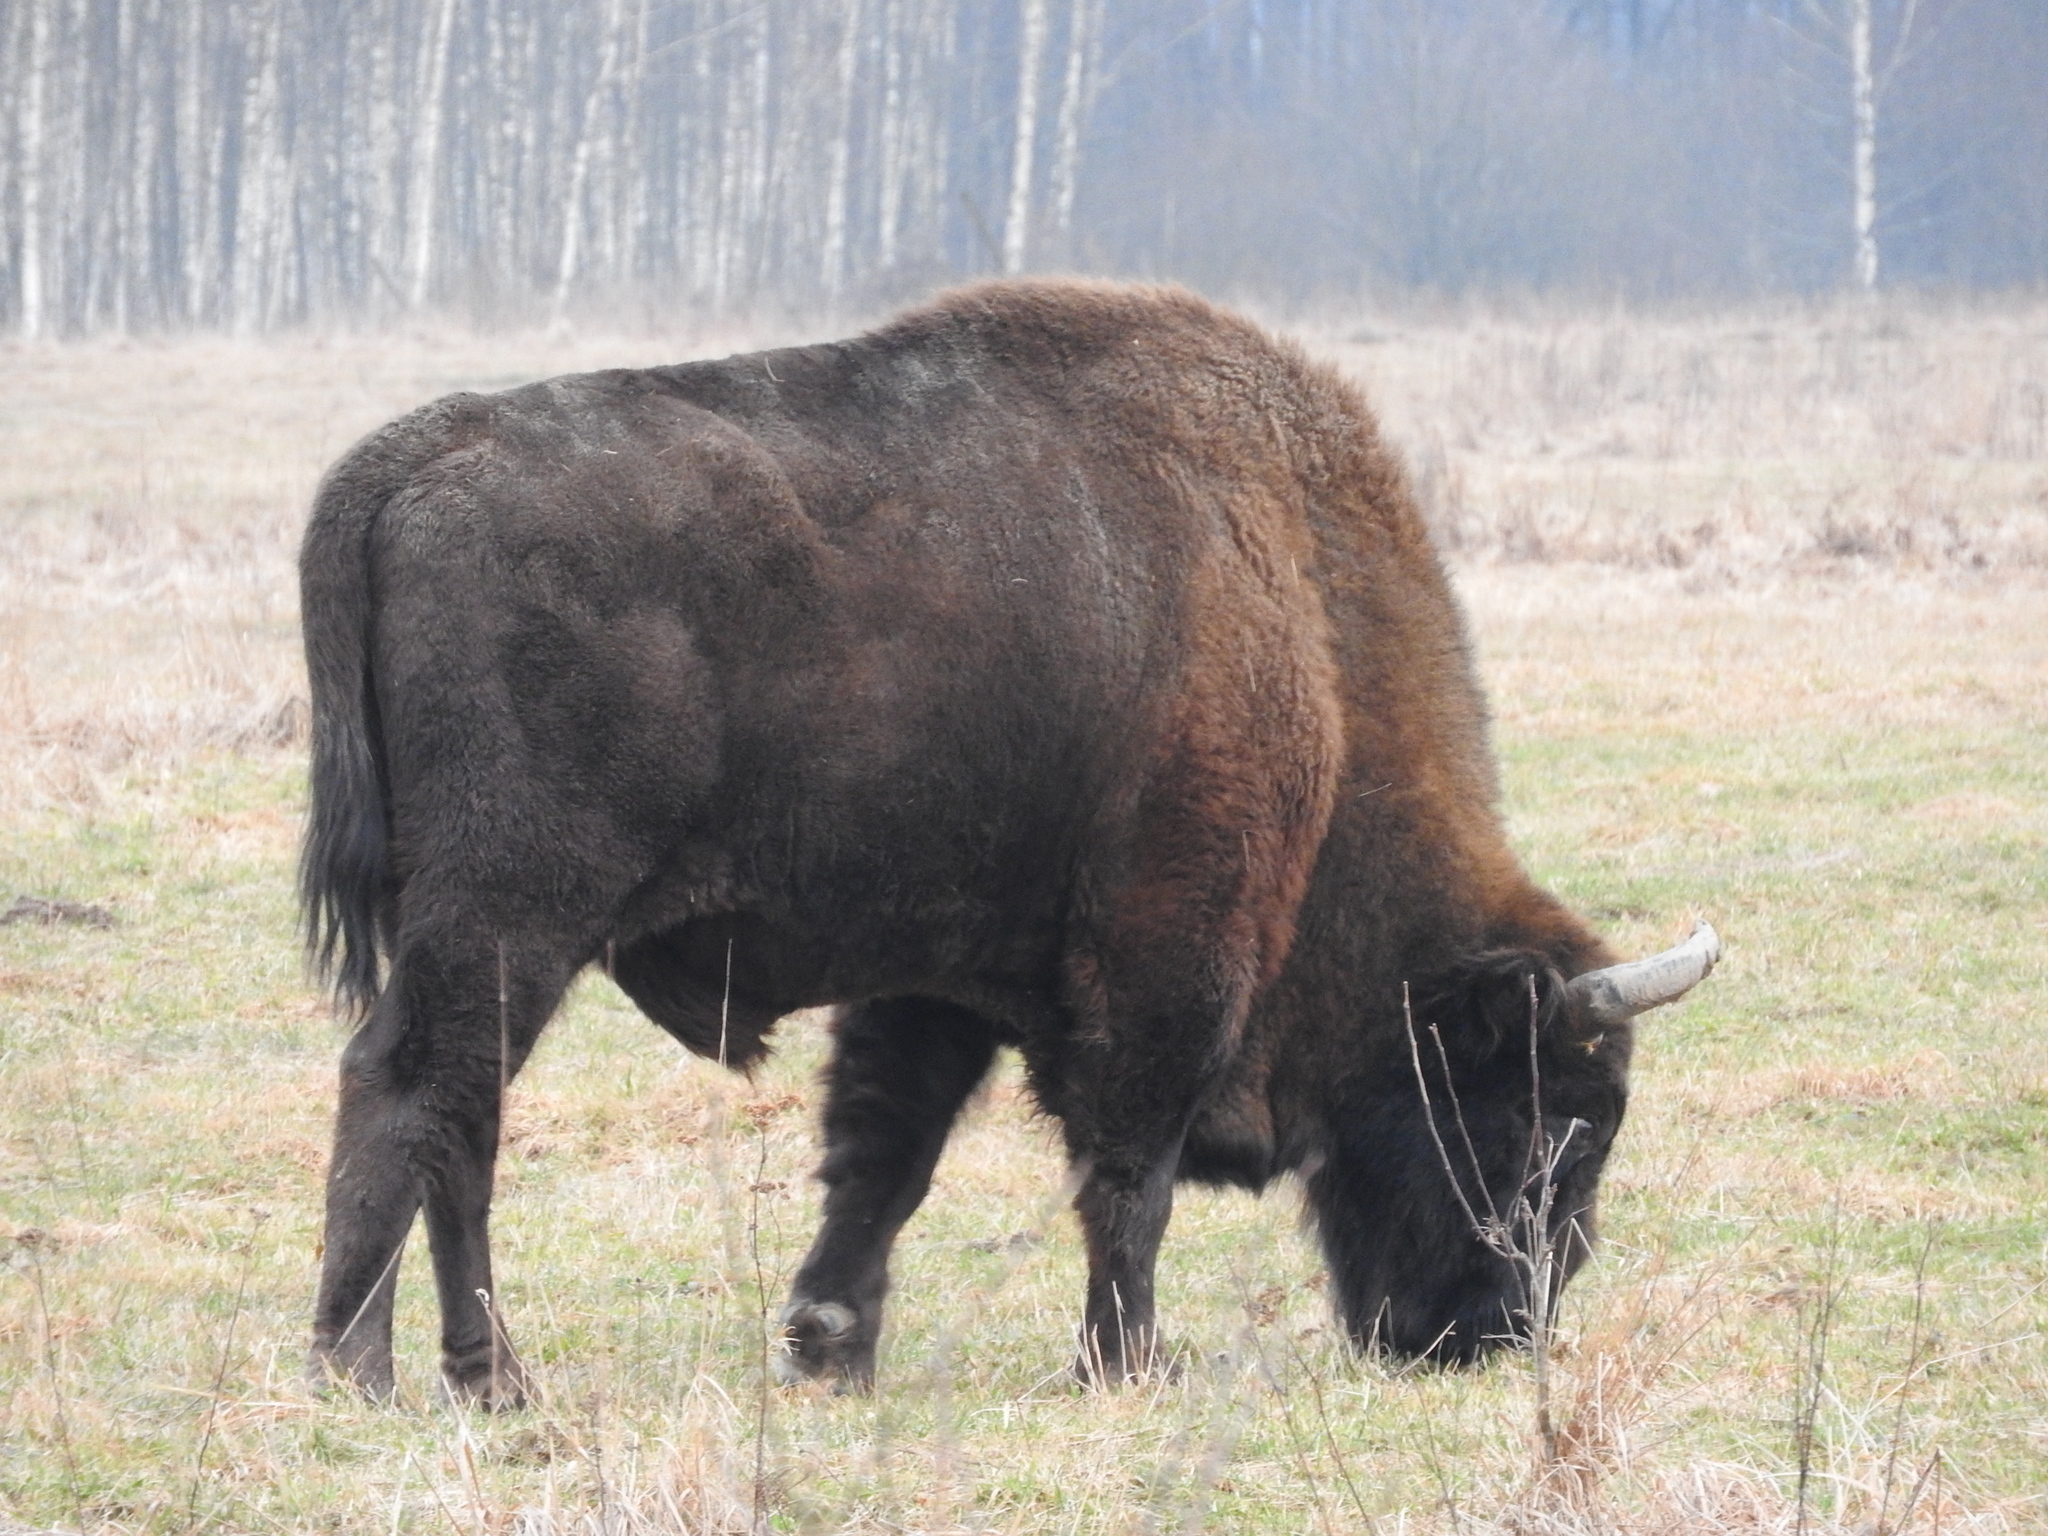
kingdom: Animalia
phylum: Chordata
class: Mammalia
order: Artiodactyla
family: Bovidae
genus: Bison
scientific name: Bison bonasus
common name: European bison
